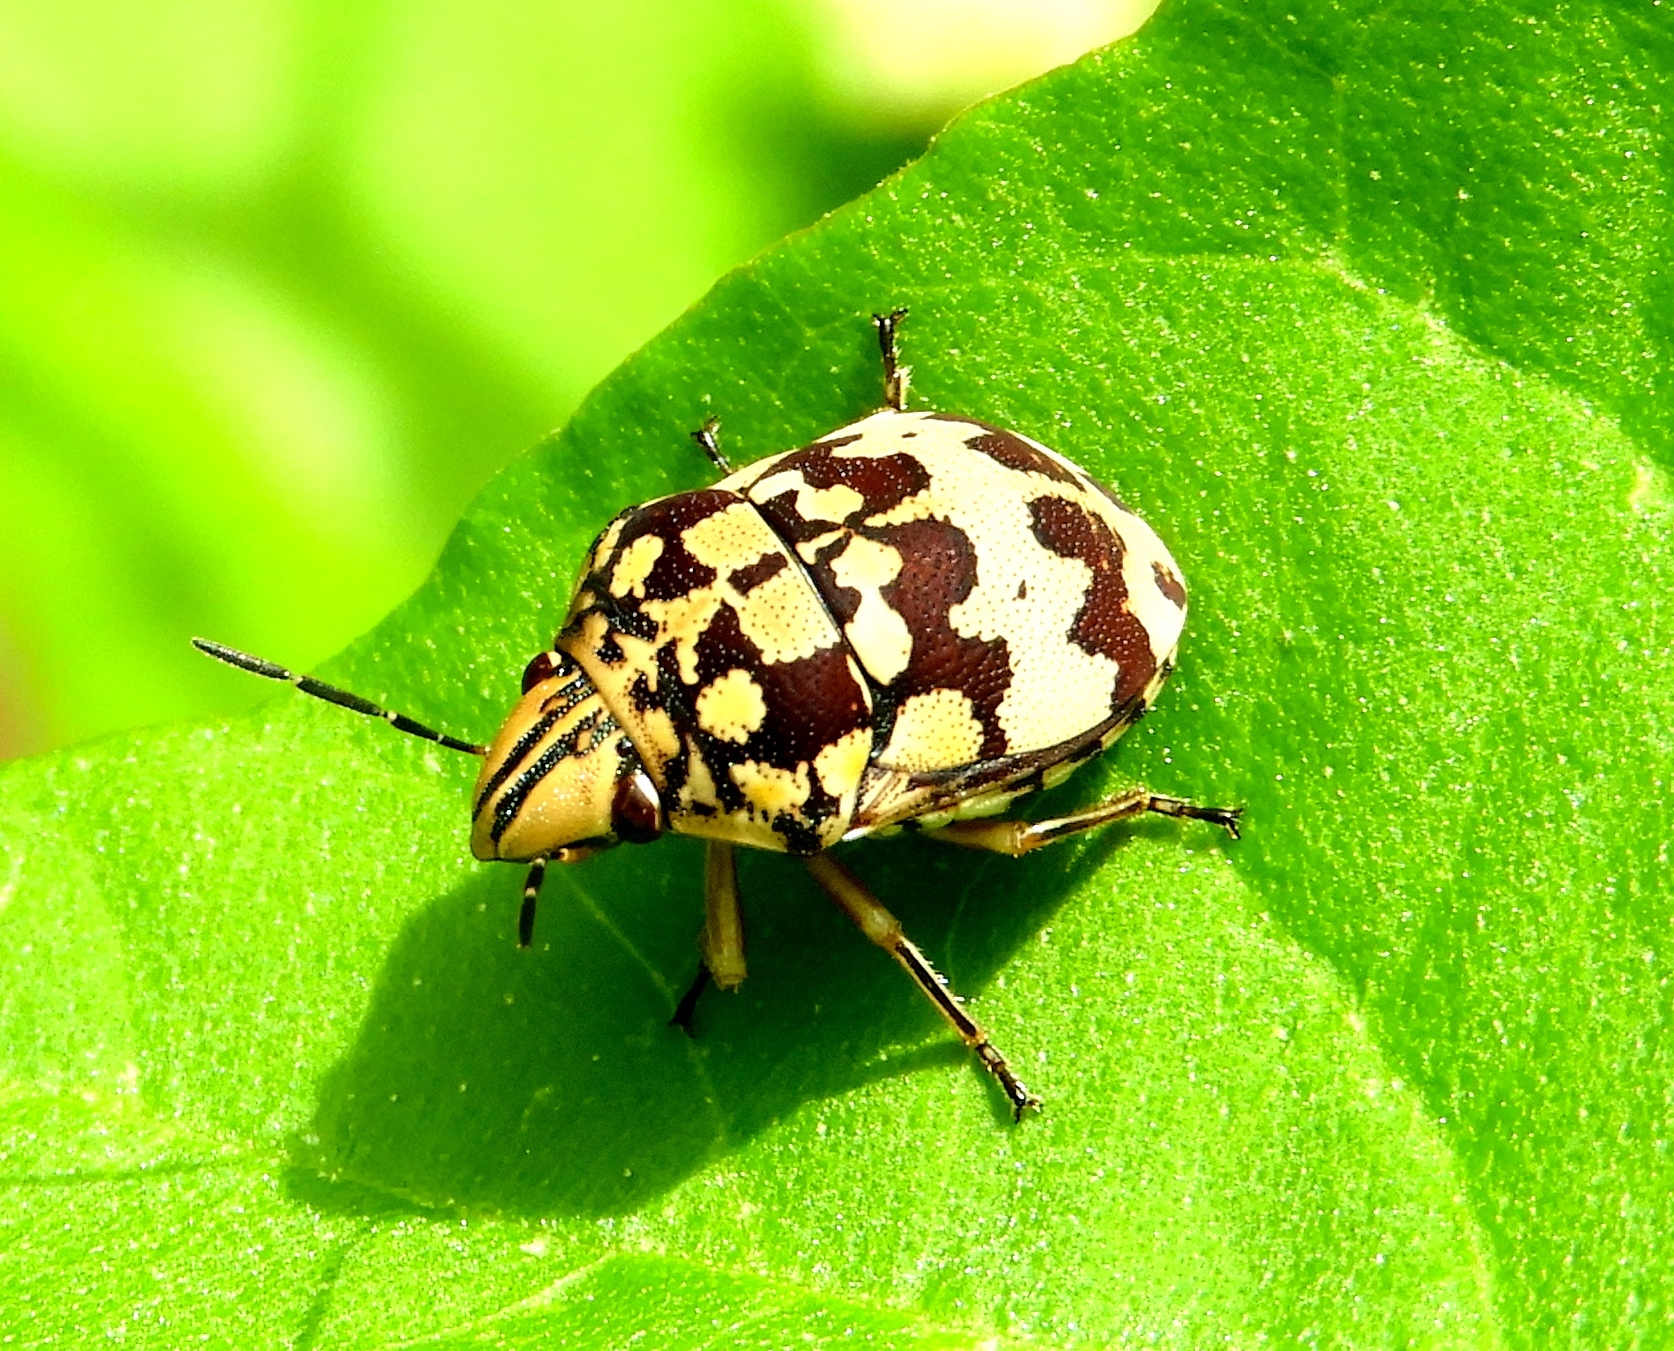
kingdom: Animalia
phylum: Arthropoda
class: Insecta
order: Hemiptera
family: Scutelleridae
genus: Orsilochides
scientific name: Orsilochides
